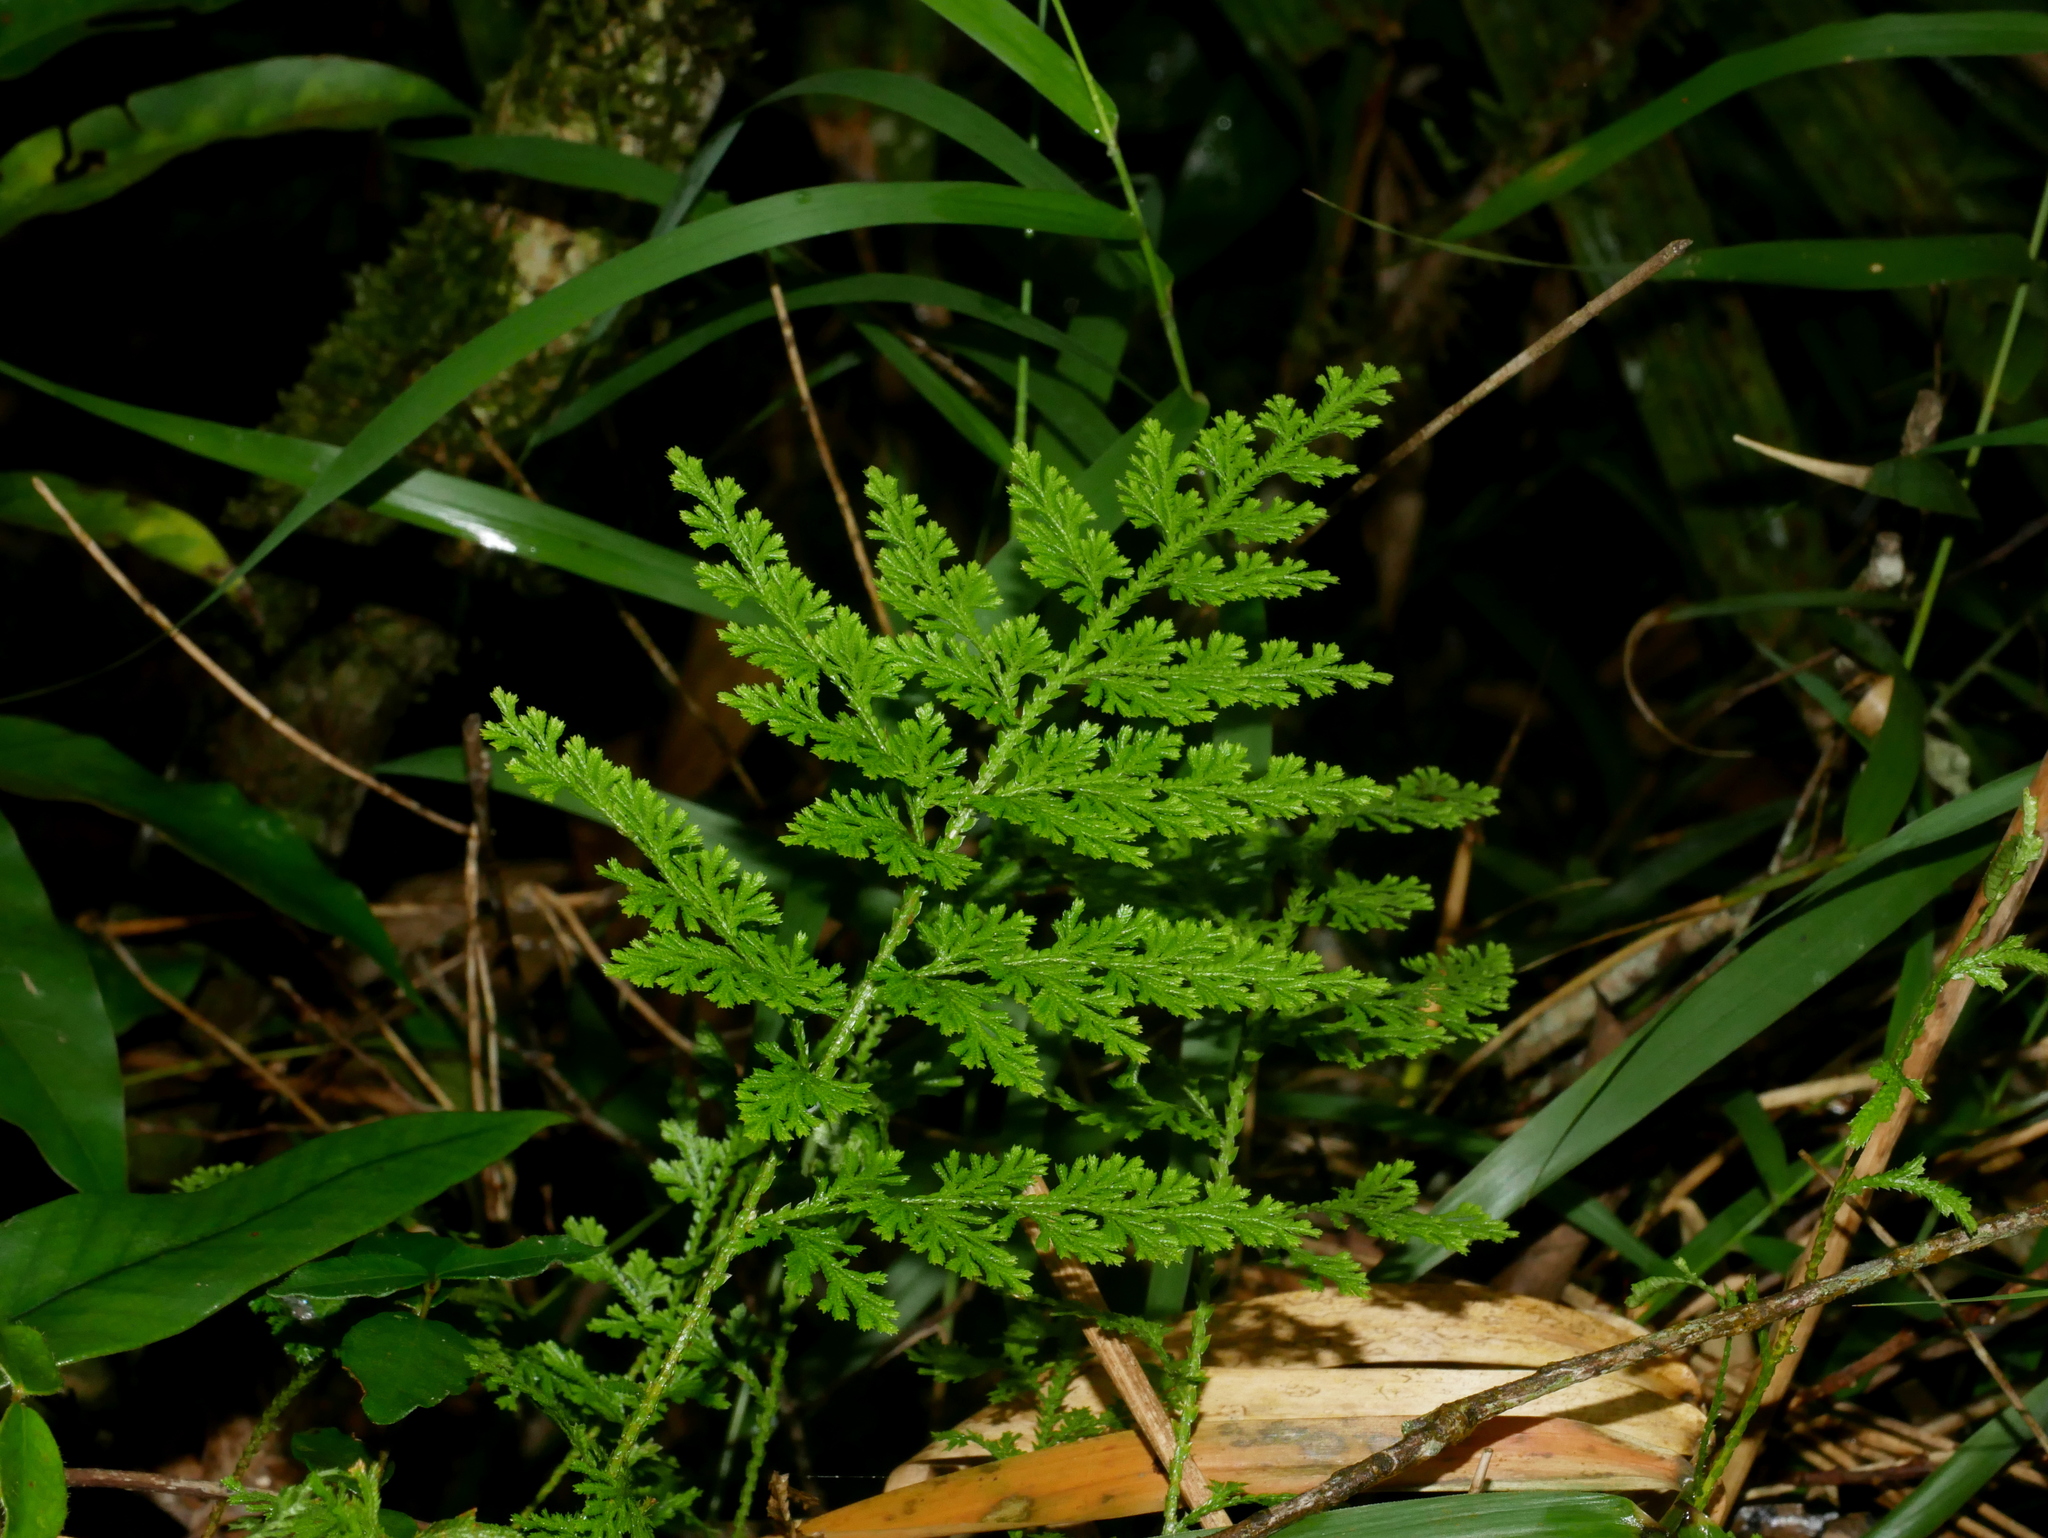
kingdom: Plantae
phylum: Tracheophyta
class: Lycopodiopsida
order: Selaginellales
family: Selaginellaceae
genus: Selaginella
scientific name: Selaginella involvens
